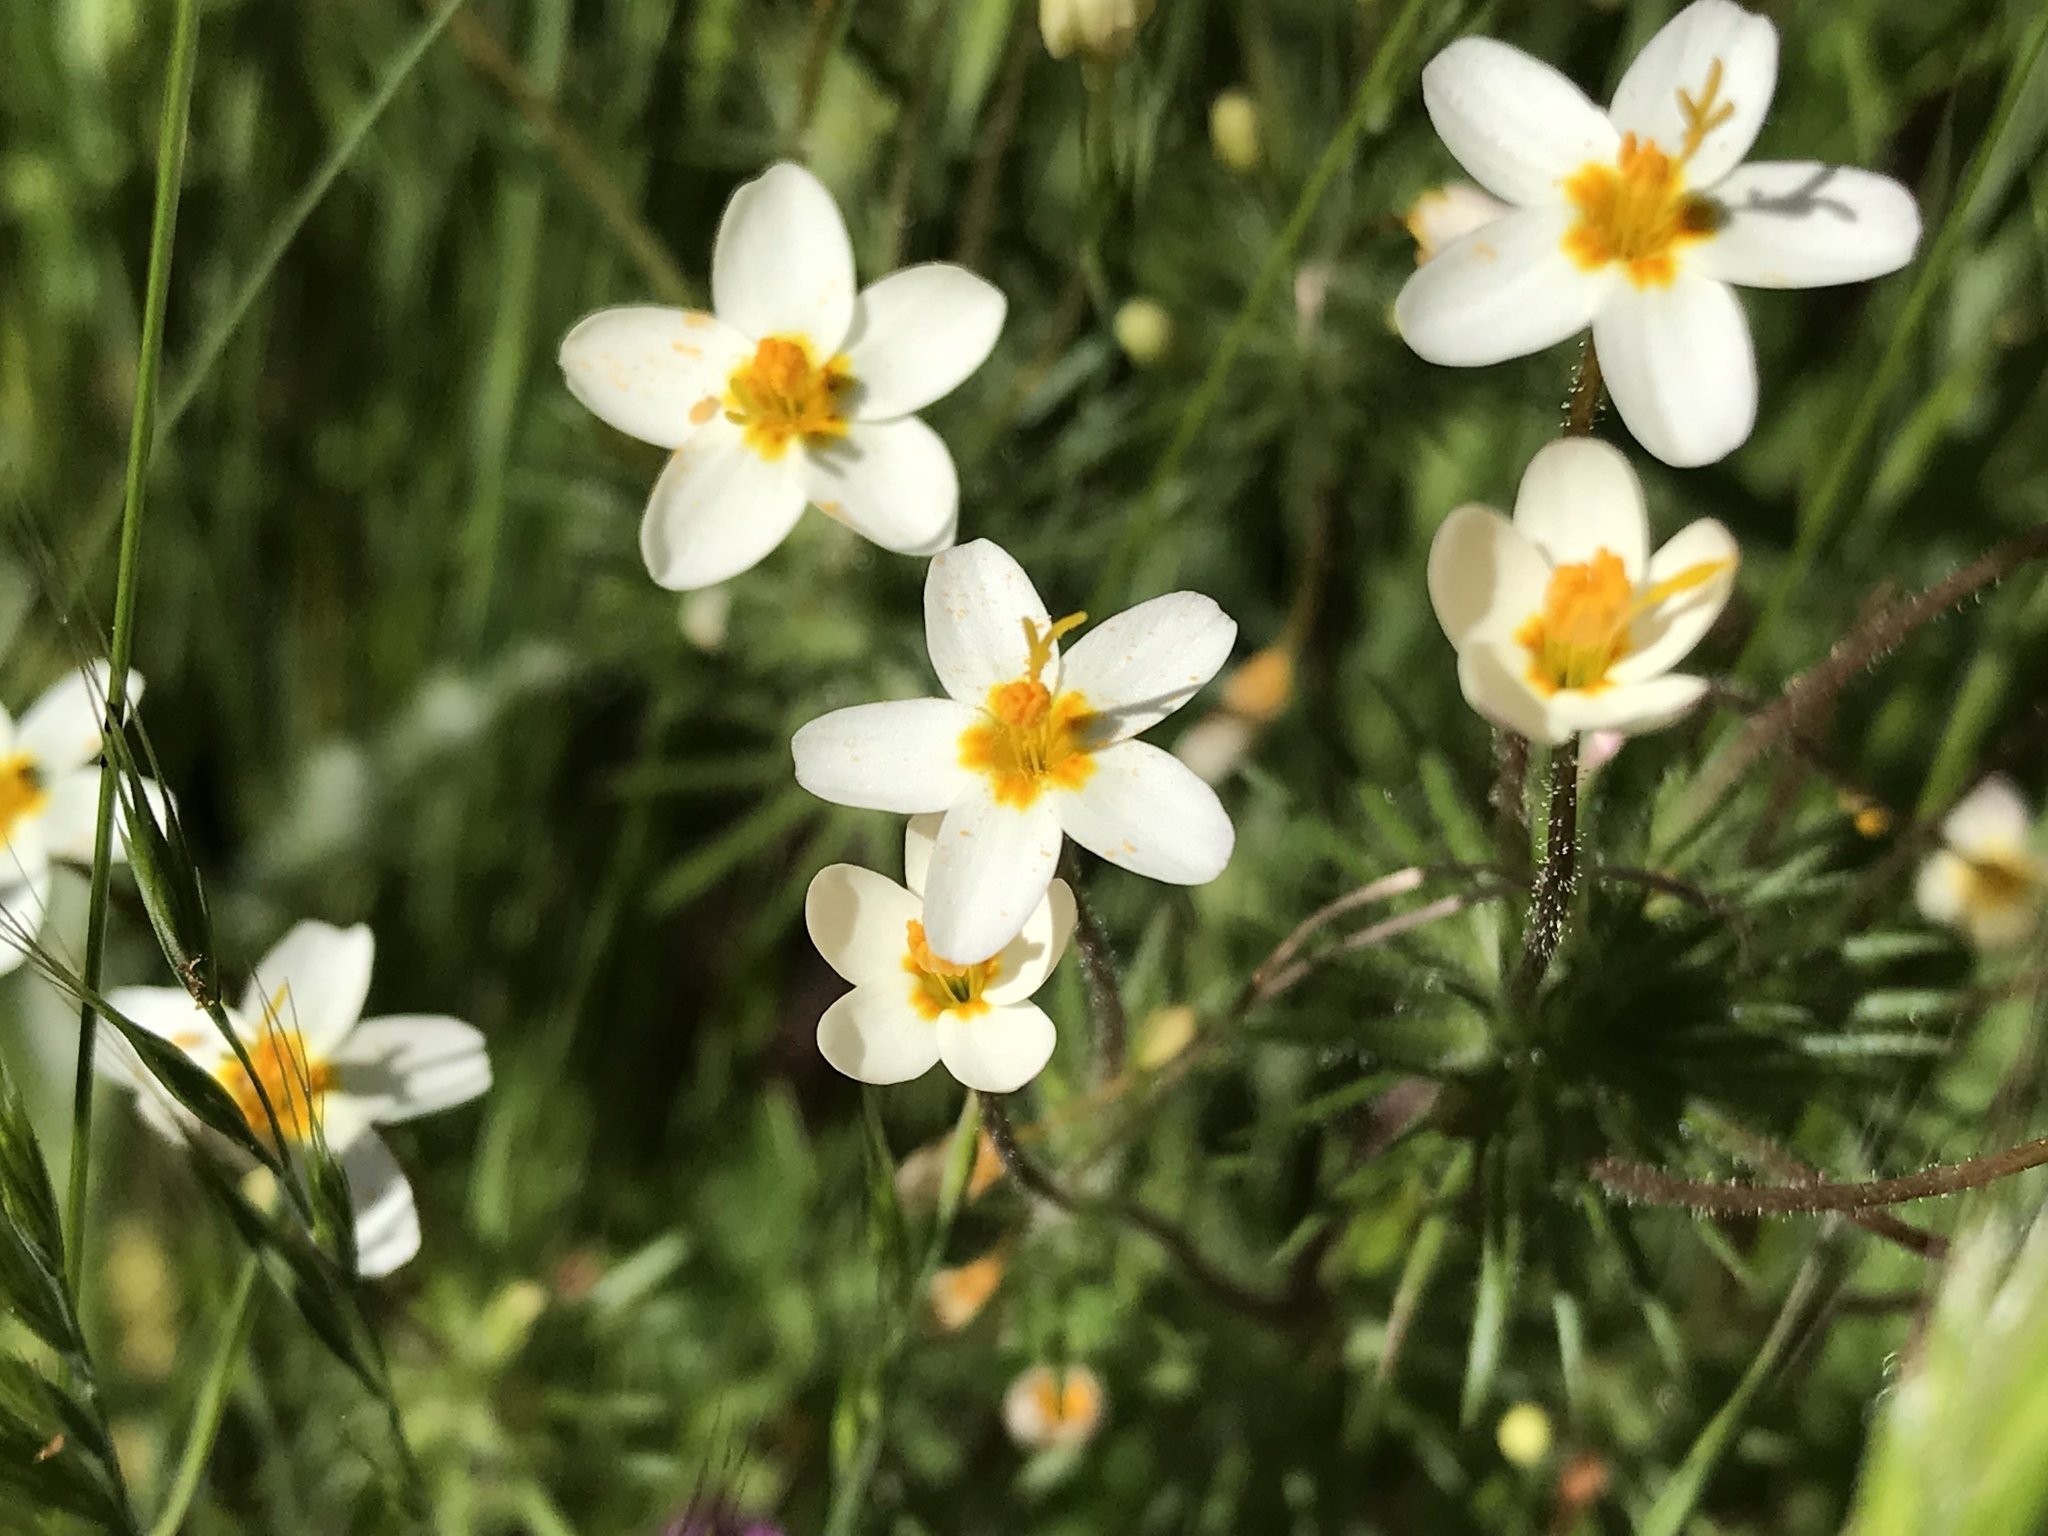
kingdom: Plantae
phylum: Tracheophyta
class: Magnoliopsida
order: Ericales
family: Polemoniaceae
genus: Leptosiphon
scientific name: Leptosiphon parviflorus
